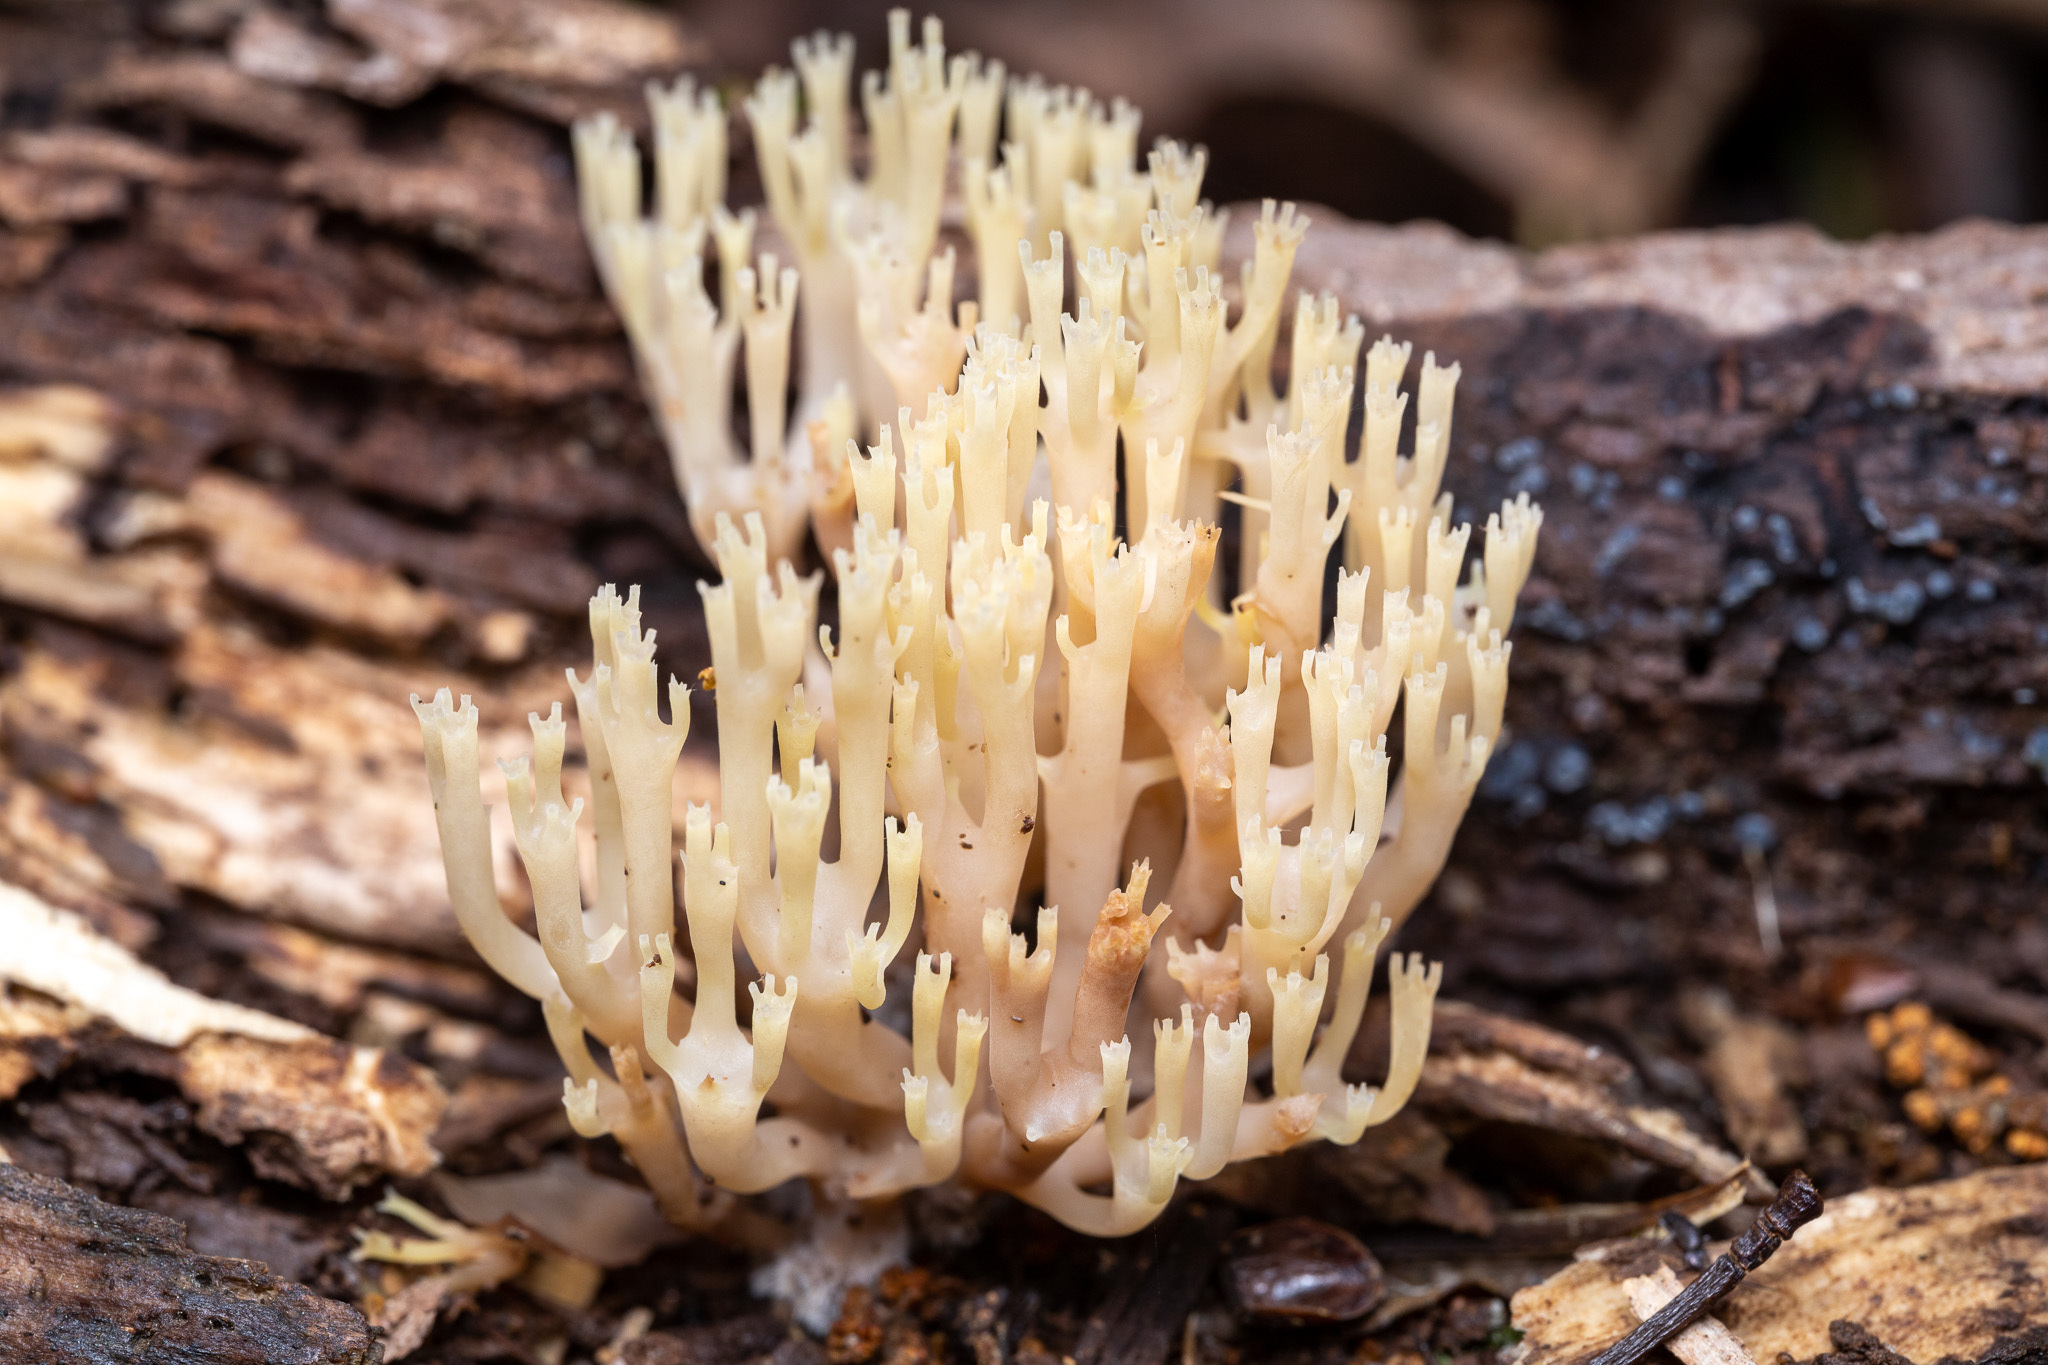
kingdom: Fungi
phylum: Basidiomycota
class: Agaricomycetes
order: Russulales
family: Auriscalpiaceae
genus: Artomyces
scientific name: Artomyces pyxidatus
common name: Crown-tipped coral fungus
